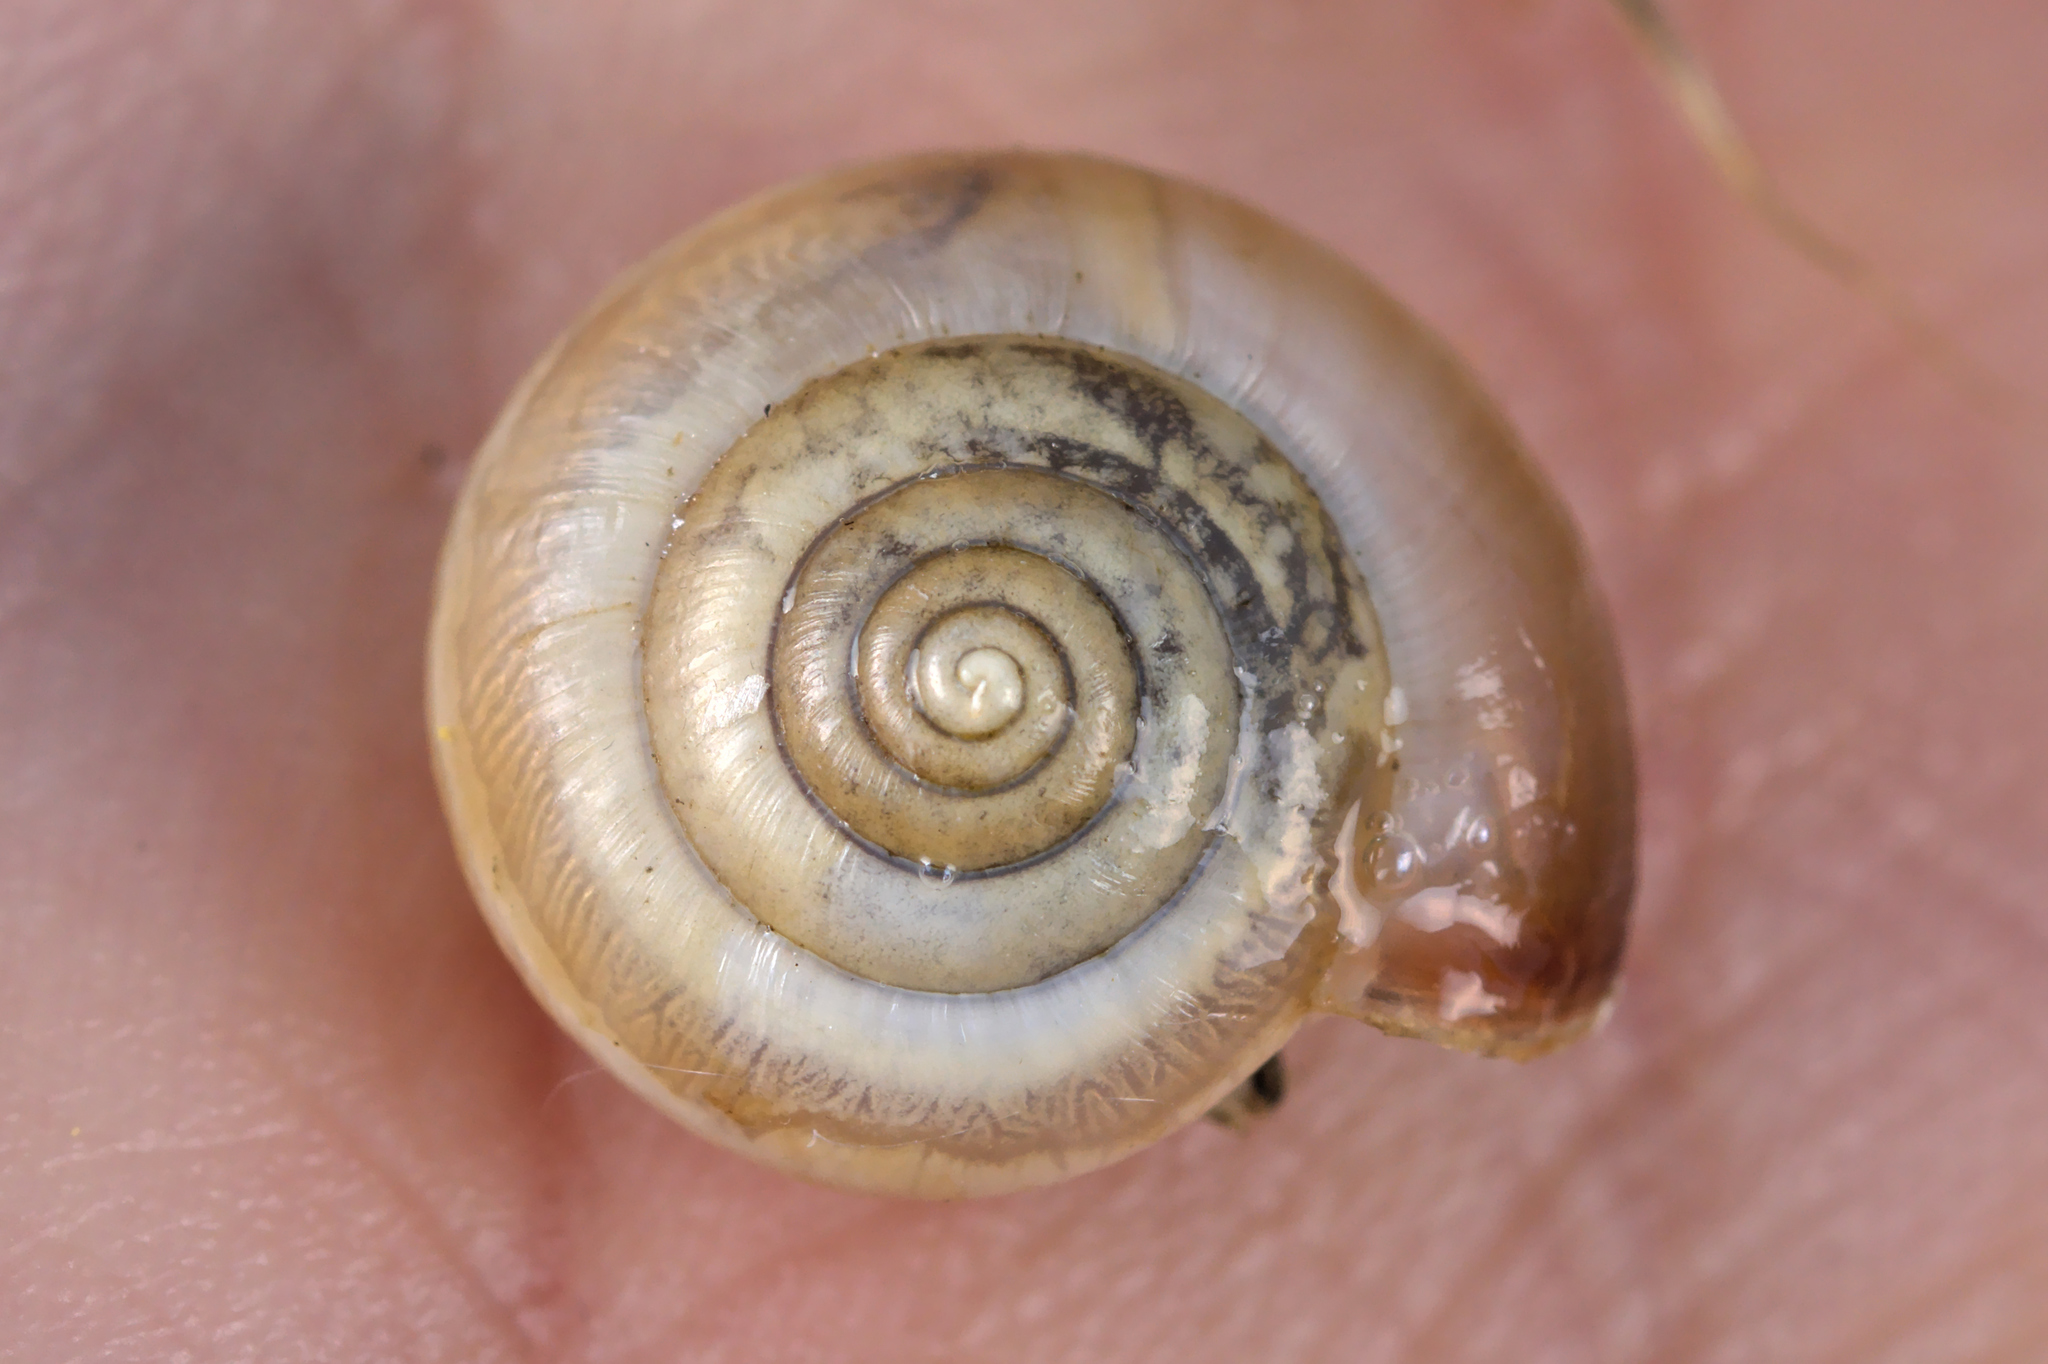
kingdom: Animalia
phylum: Mollusca
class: Gastropoda
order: Stylommatophora
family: Hygromiidae
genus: Monacha
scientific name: Monacha cartusiana
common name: Carthusian snail
